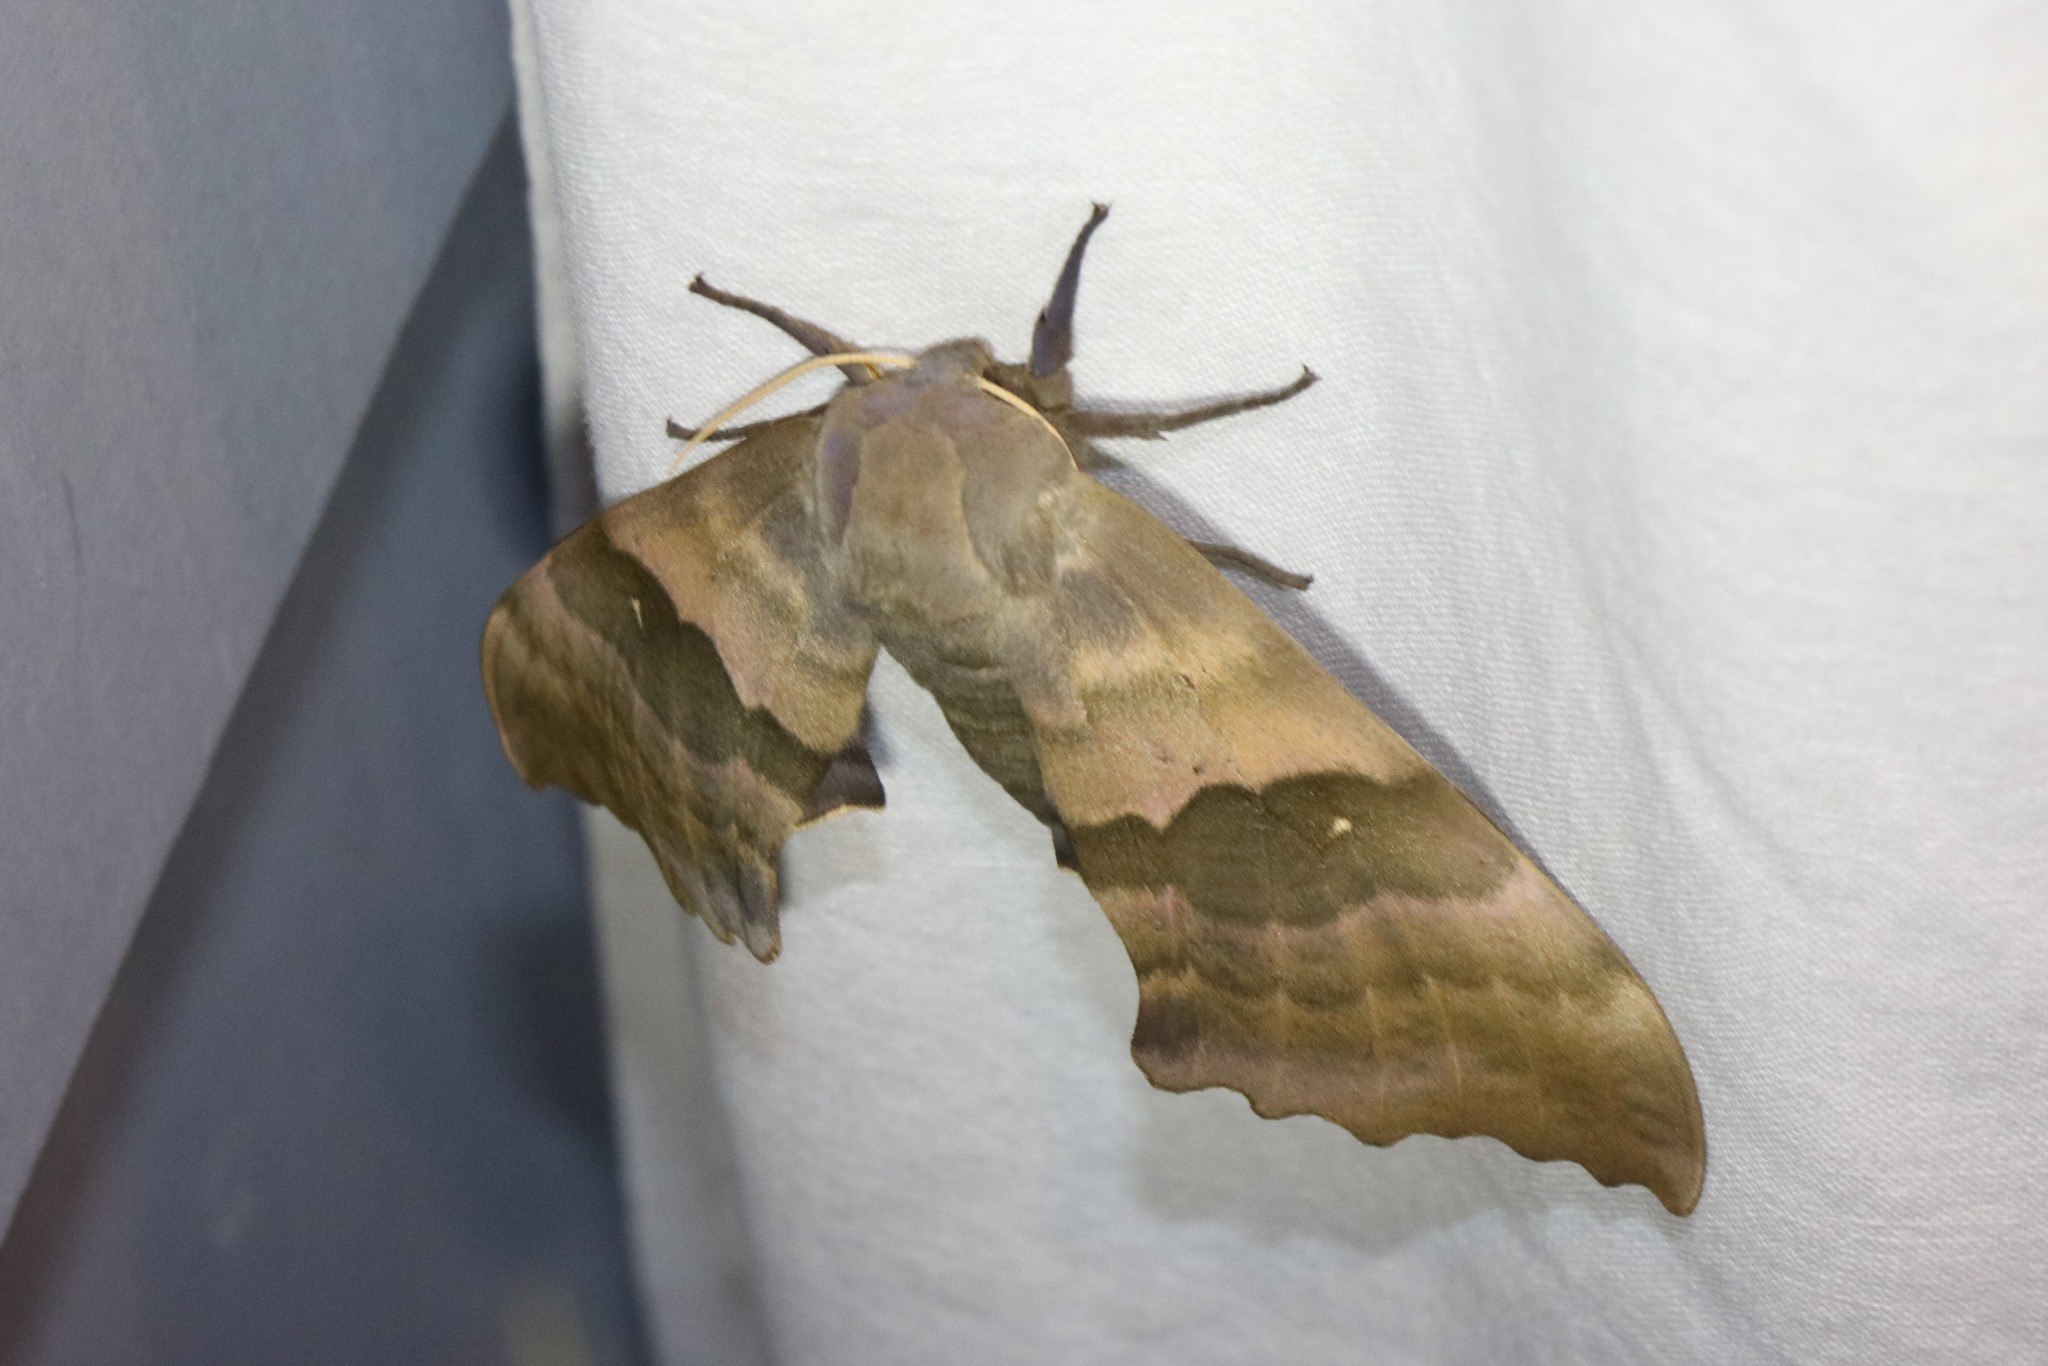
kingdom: Animalia
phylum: Arthropoda
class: Insecta
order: Lepidoptera
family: Sphingidae
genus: Pachysphinx
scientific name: Pachysphinx modesta
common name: Big poplar sphinx
